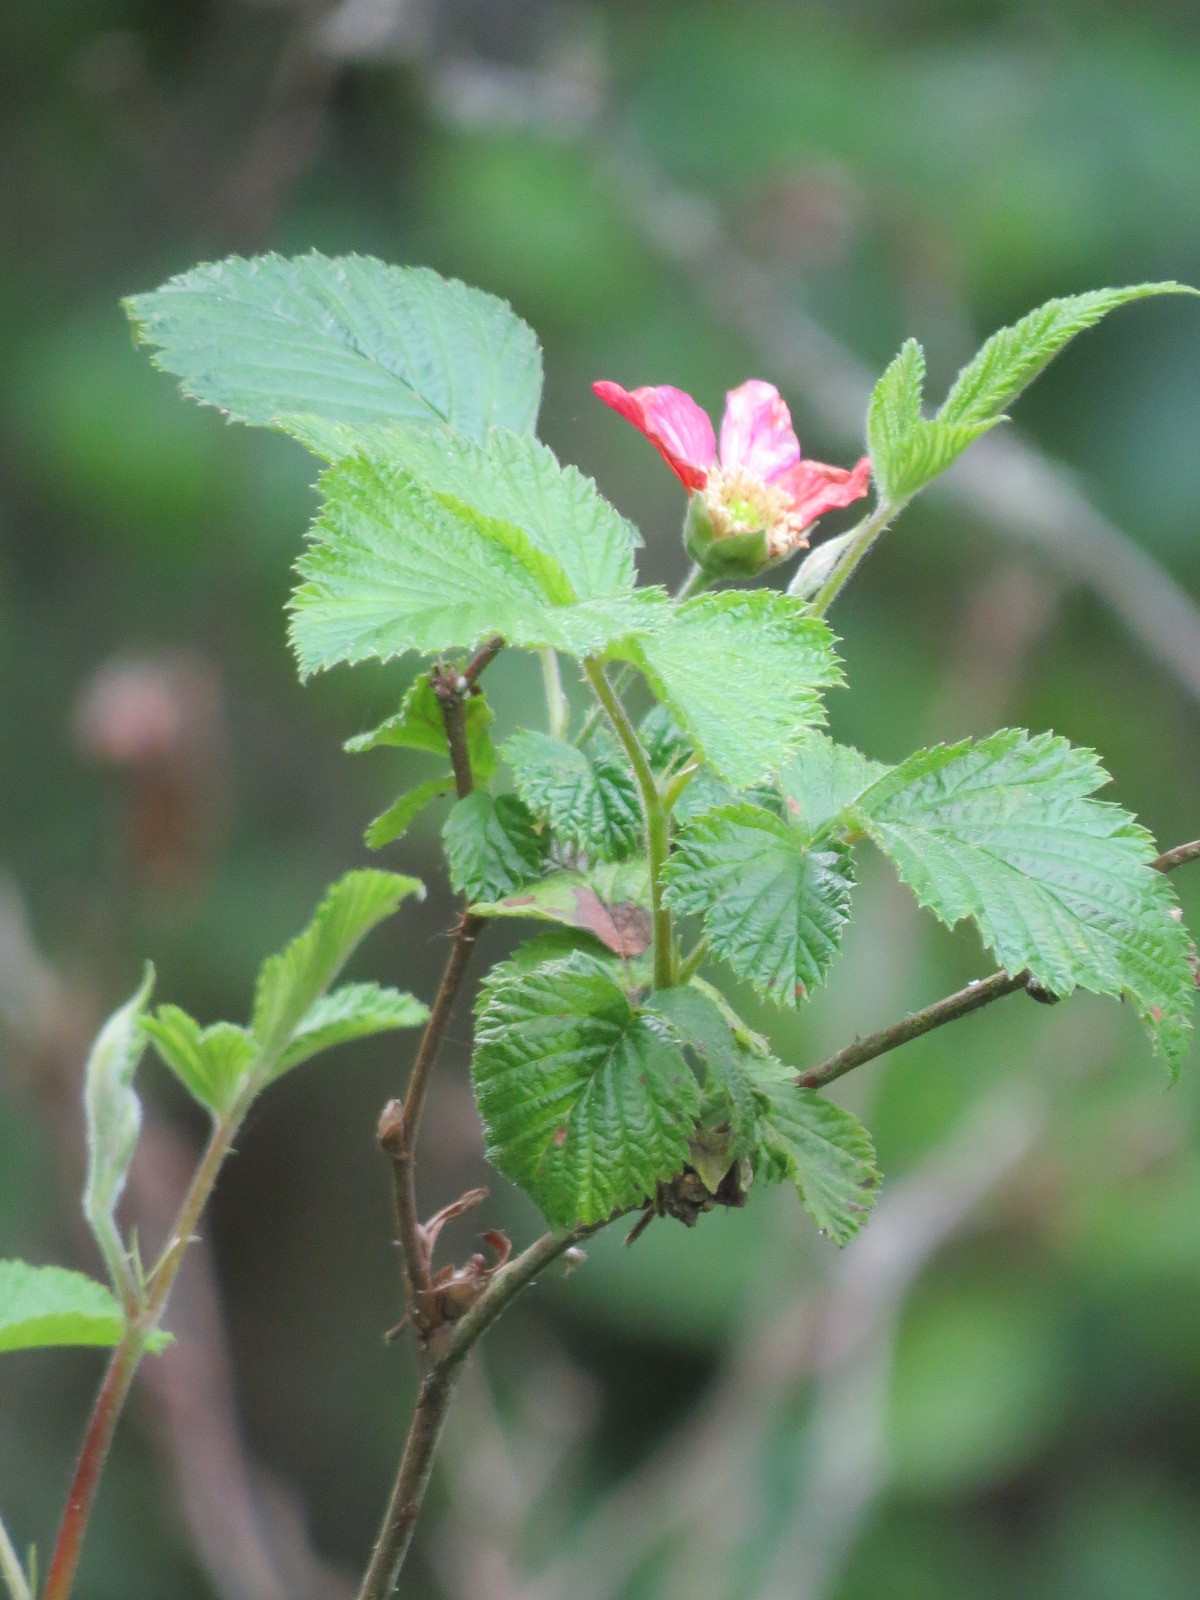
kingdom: Plantae
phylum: Tracheophyta
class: Magnoliopsida
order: Rosales
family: Rosaceae
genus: Rubus
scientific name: Rubus spectabilis
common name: Salmonberry
